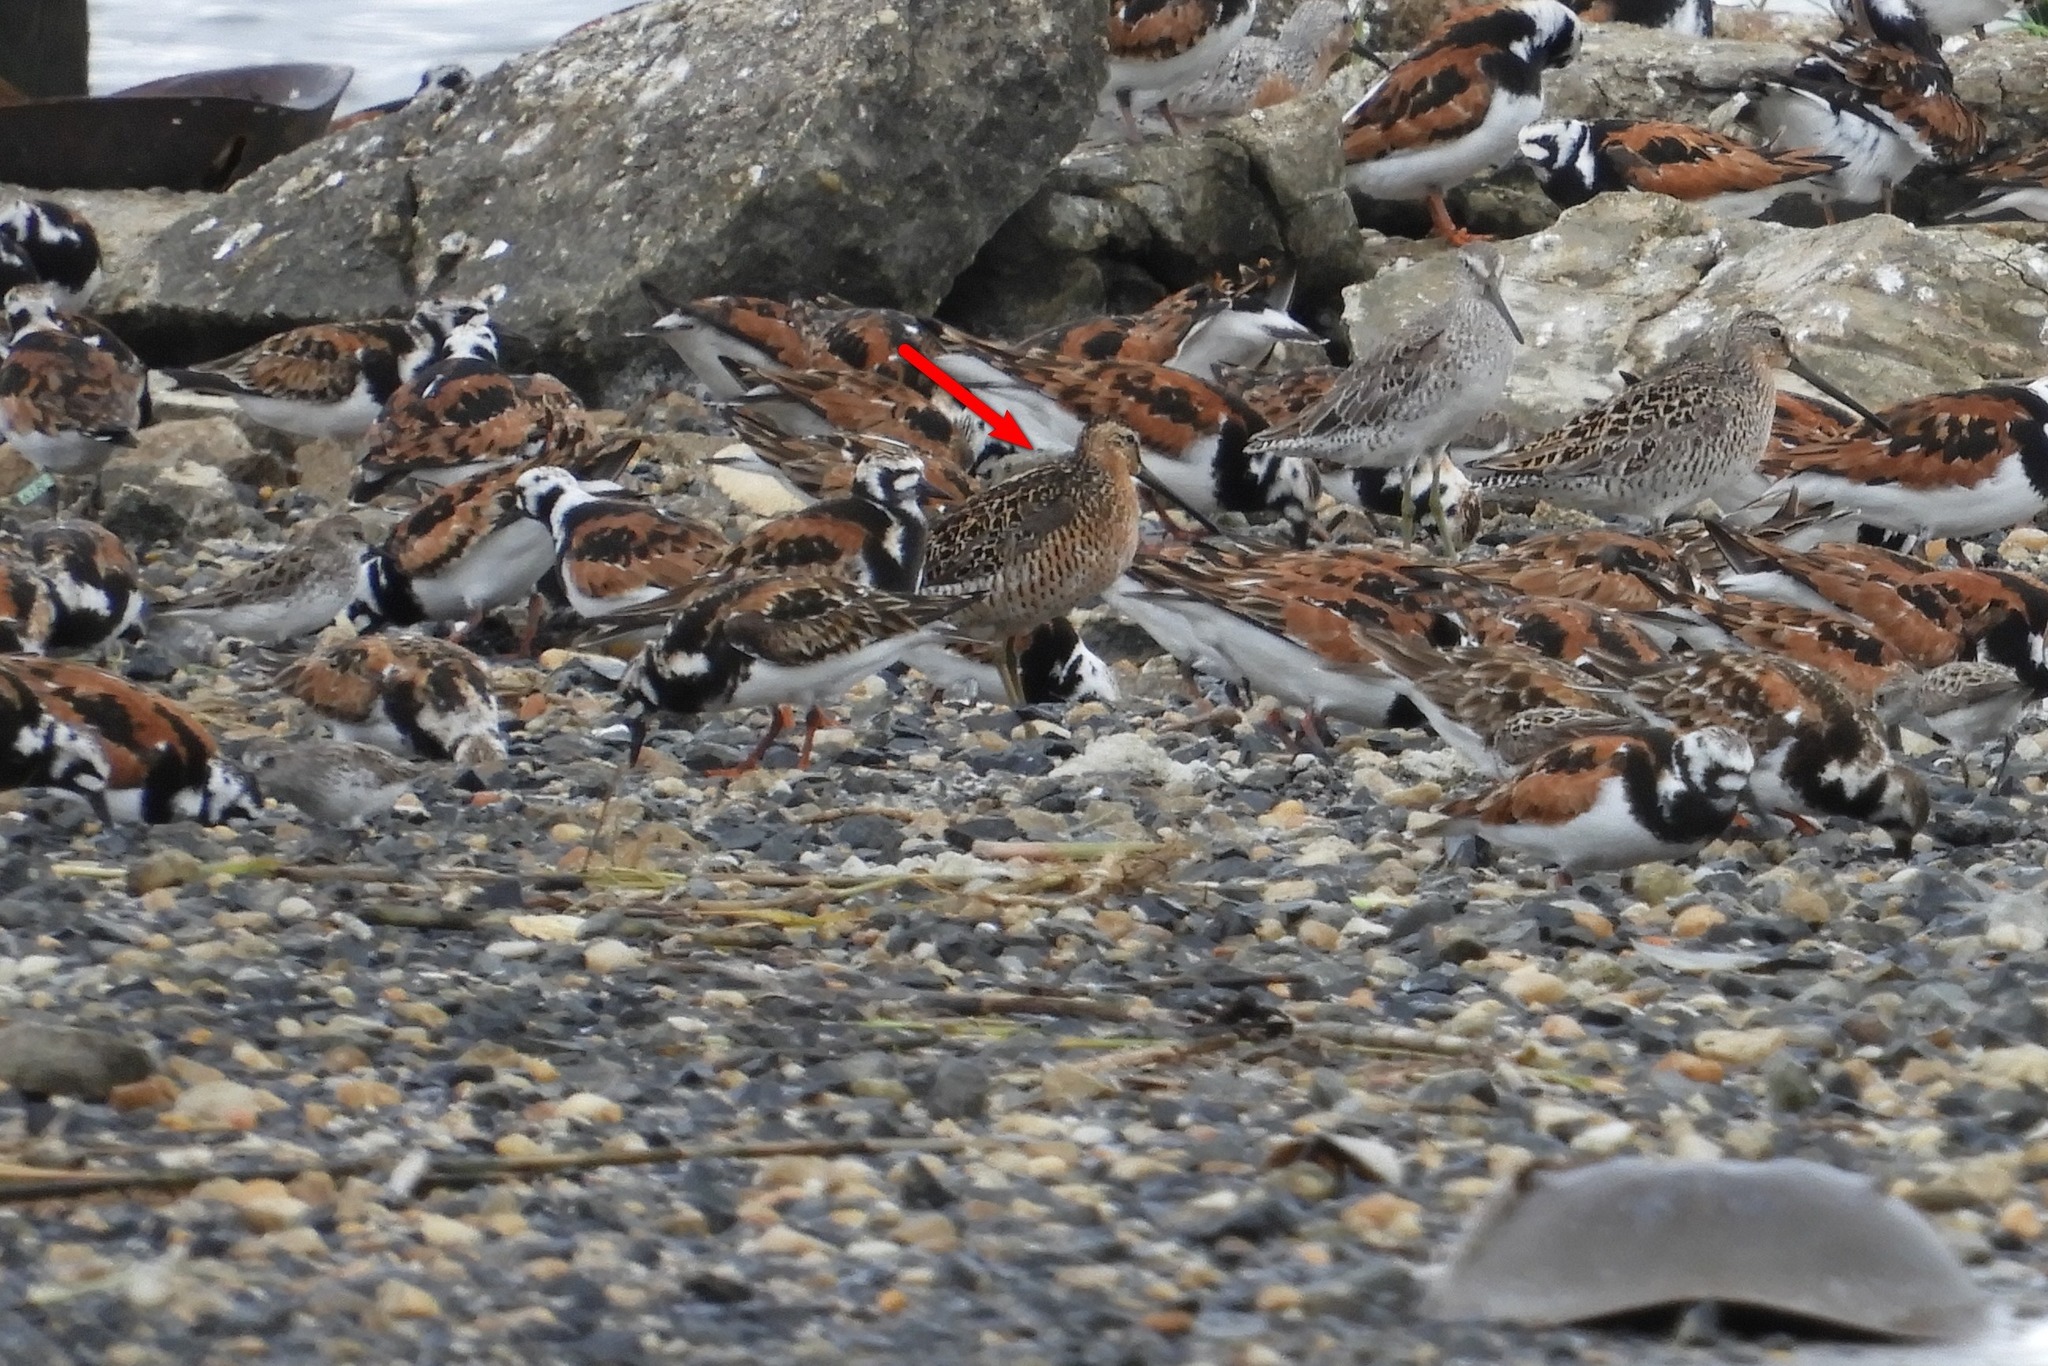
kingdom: Animalia
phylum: Chordata
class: Aves
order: Charadriiformes
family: Scolopacidae
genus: Limnodromus
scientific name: Limnodromus griseus
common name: Short-billed dowitcher
